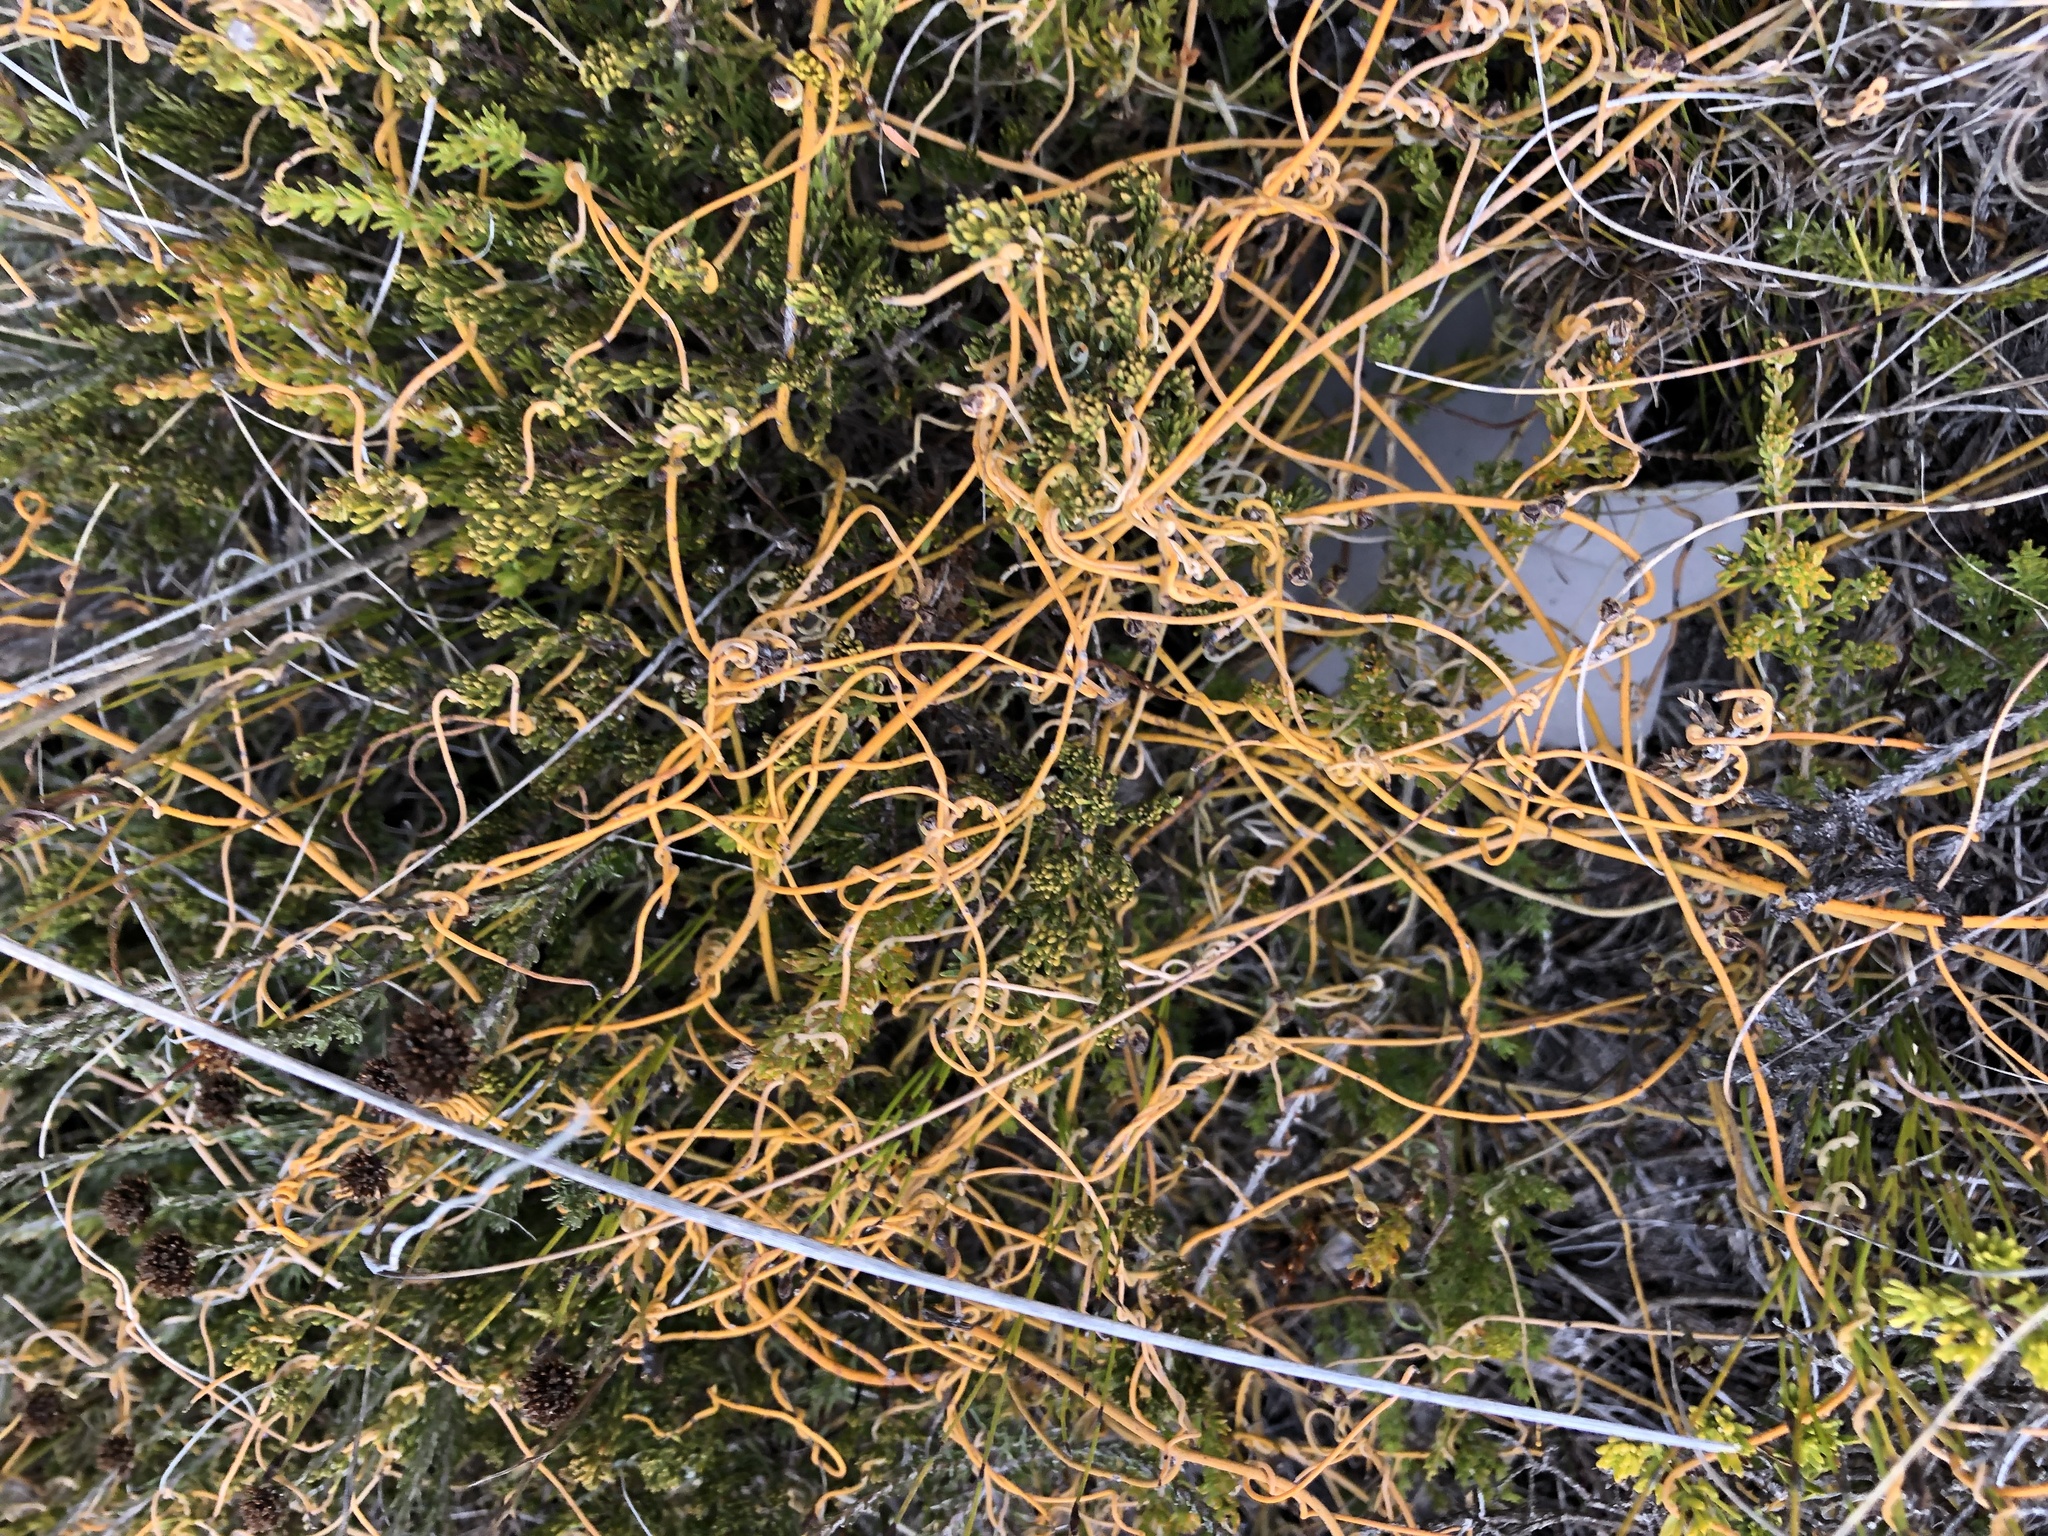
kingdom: Plantae
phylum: Tracheophyta
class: Magnoliopsida
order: Laurales
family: Lauraceae
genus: Cassytha
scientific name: Cassytha ciliolata
